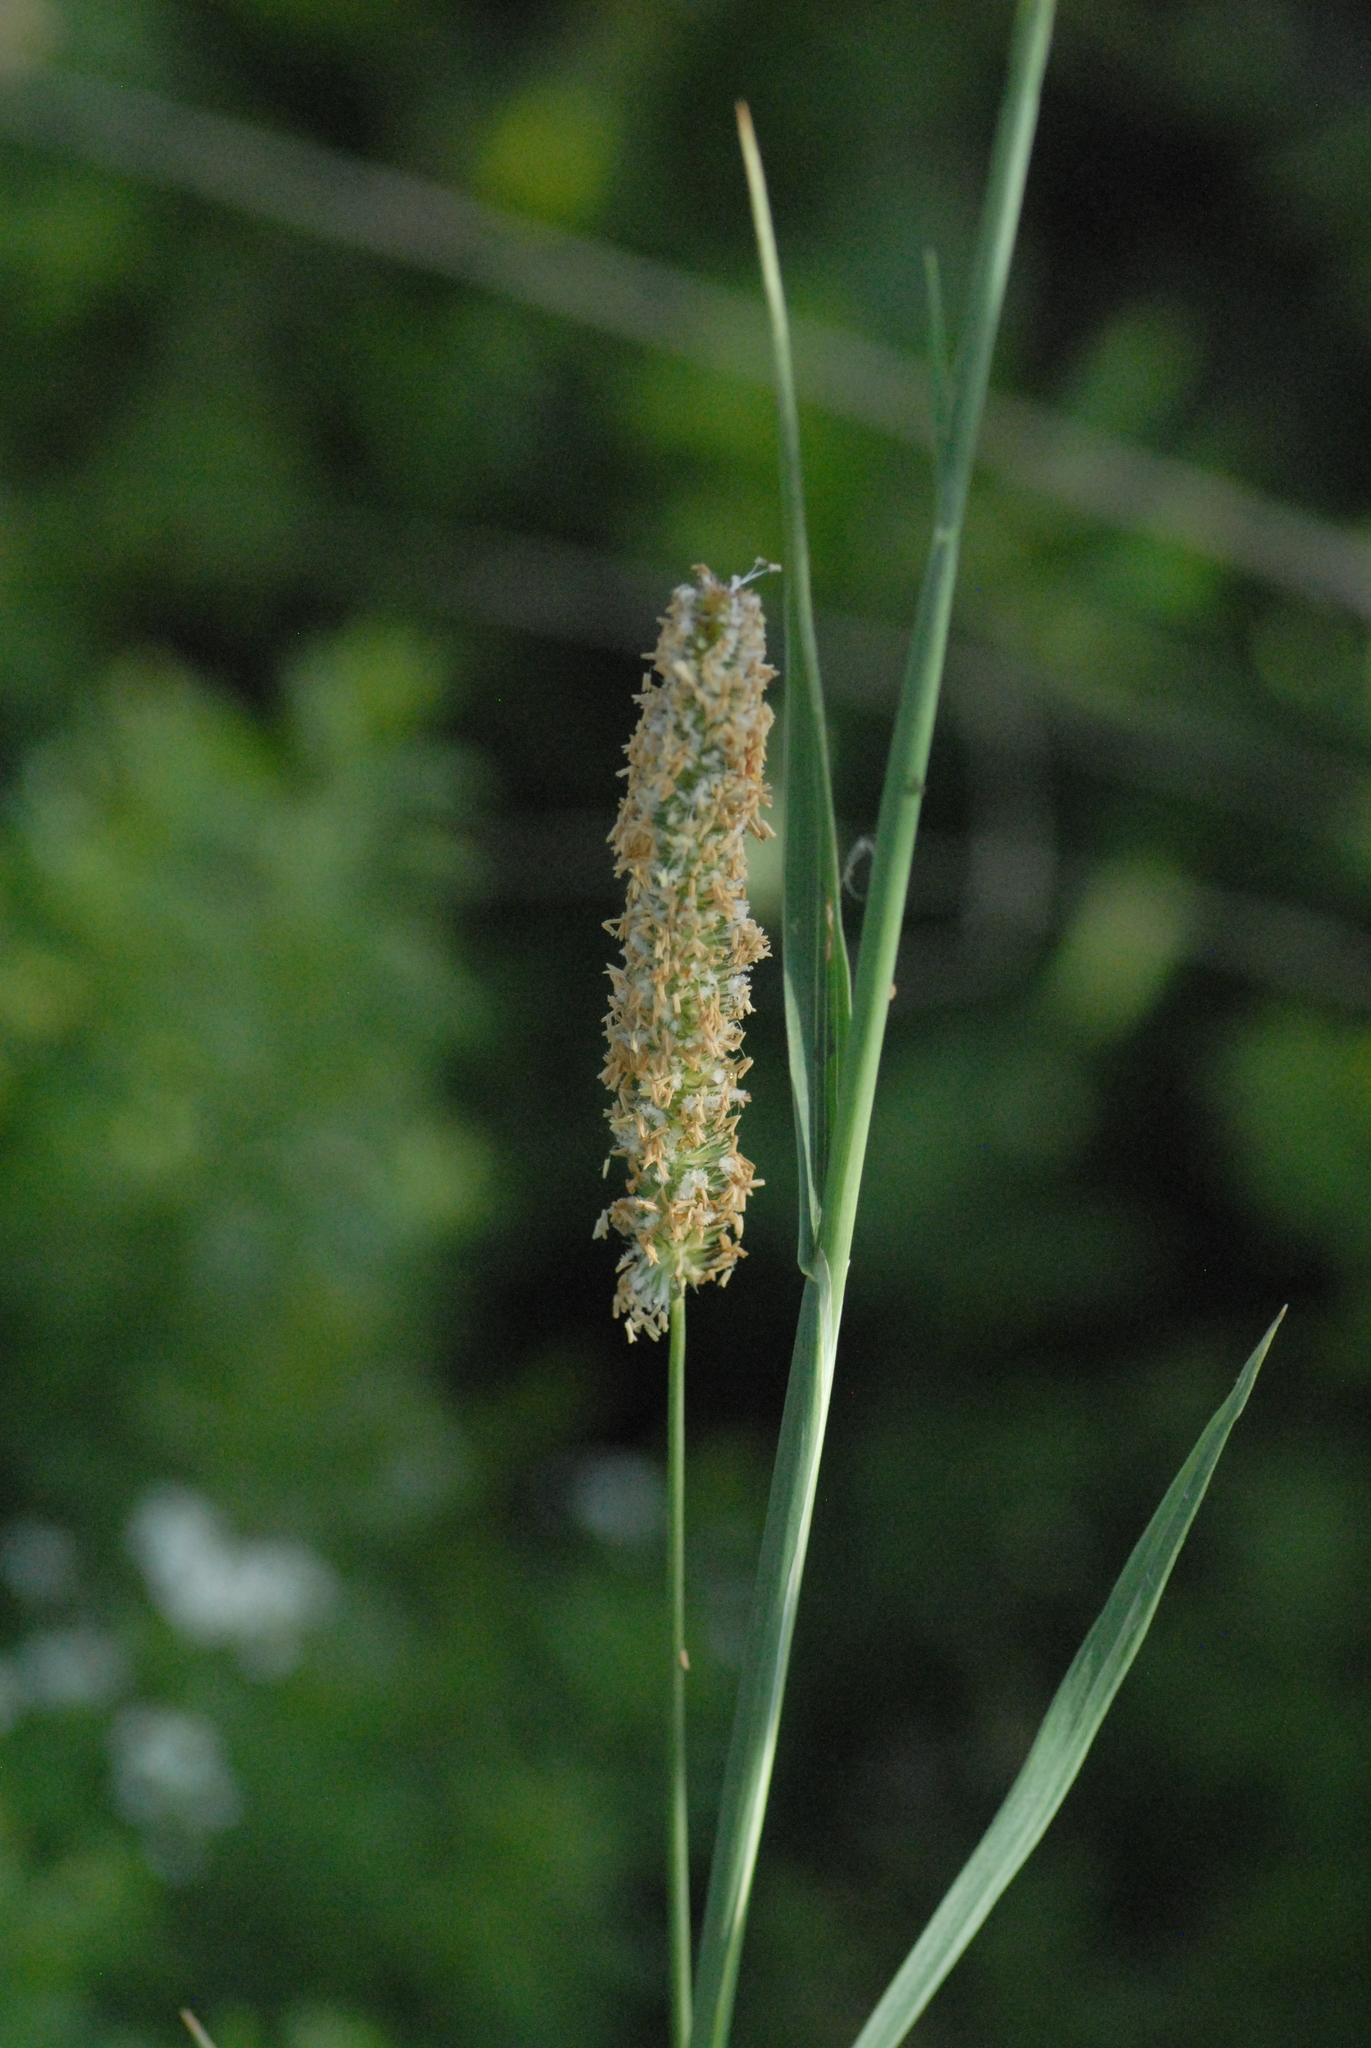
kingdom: Plantae
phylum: Tracheophyta
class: Liliopsida
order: Poales
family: Poaceae
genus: Phleum
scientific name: Phleum pratense
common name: Timothy grass
